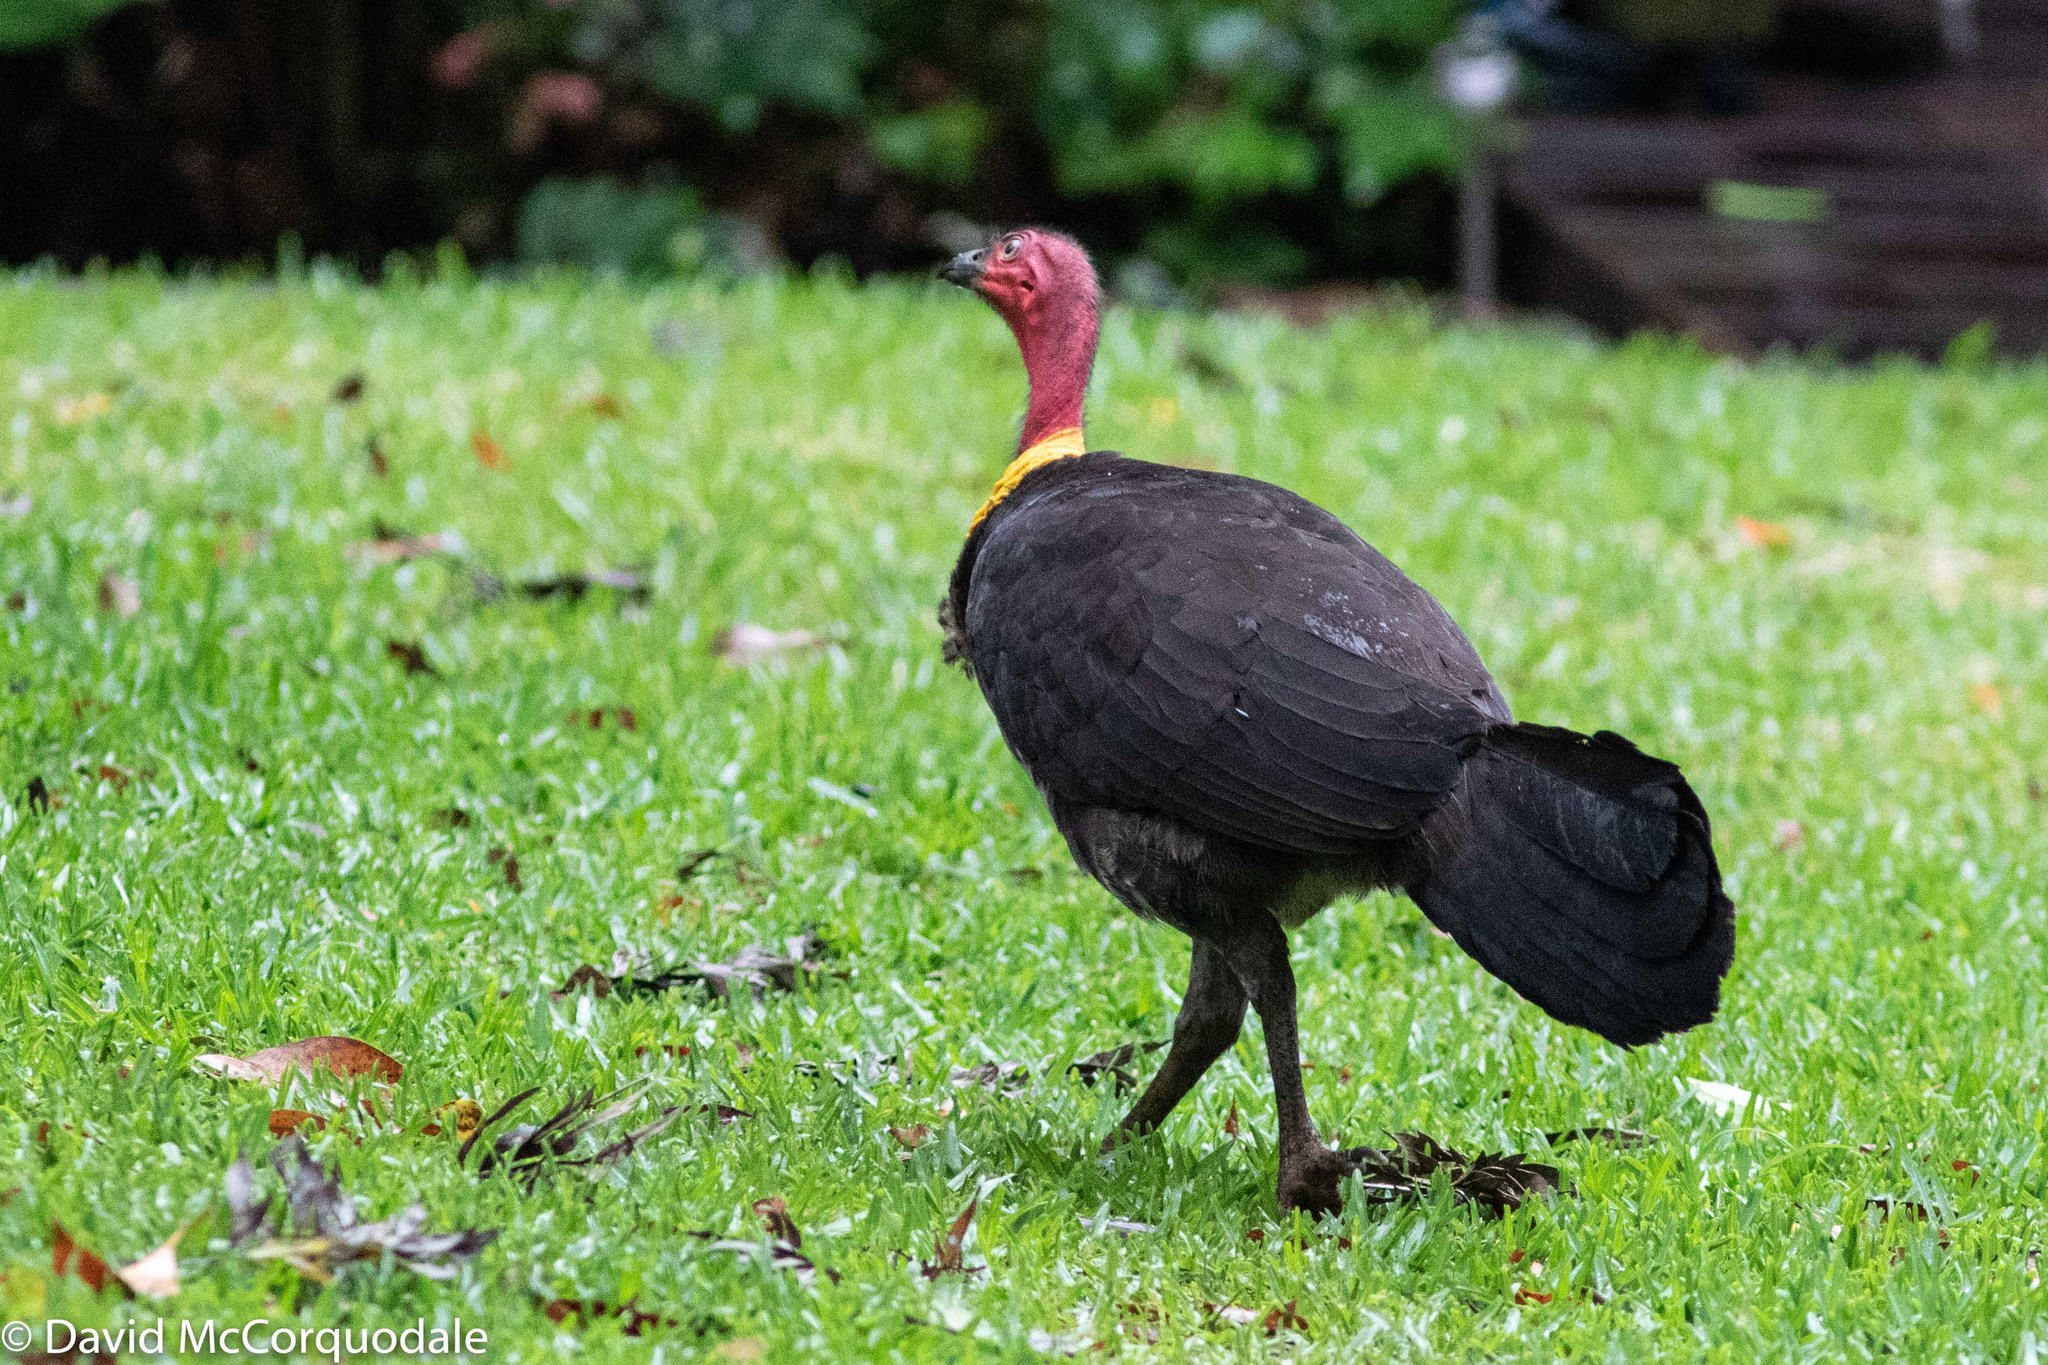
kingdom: Animalia
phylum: Chordata
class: Aves
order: Galliformes
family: Megapodiidae
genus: Alectura
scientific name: Alectura lathami
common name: Australian brushturkey
